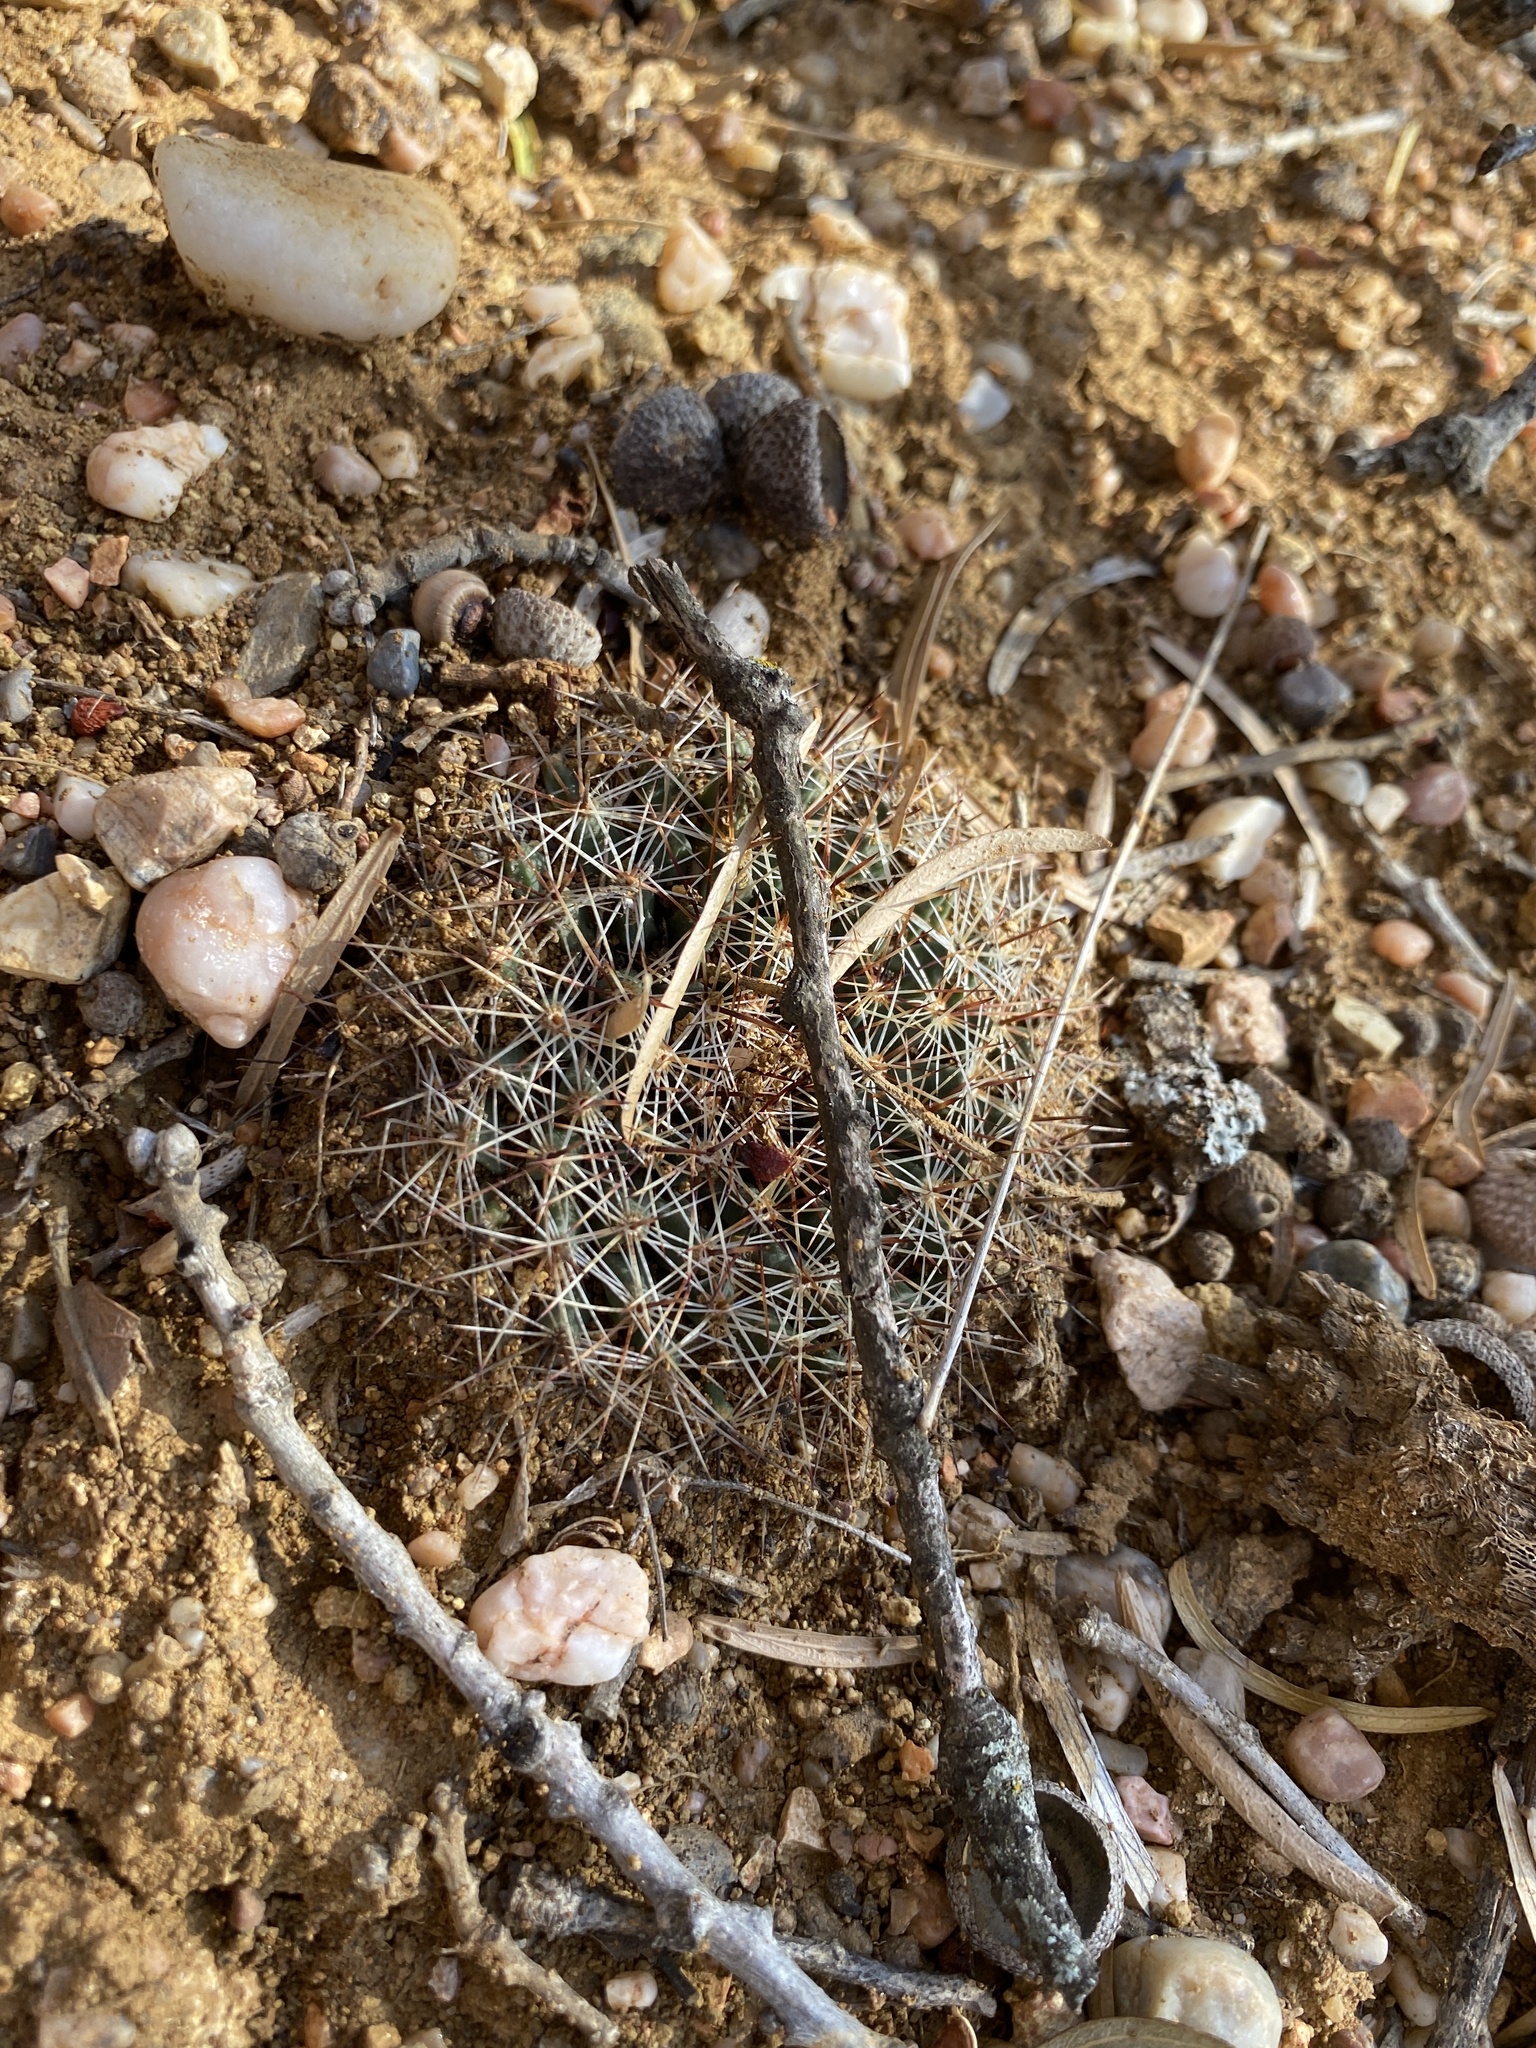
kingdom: Plantae
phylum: Tracheophyta
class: Magnoliopsida
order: Caryophyllales
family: Cactaceae
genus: Mammillaria
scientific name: Mammillaria heyderi
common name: Little nipple cactus
